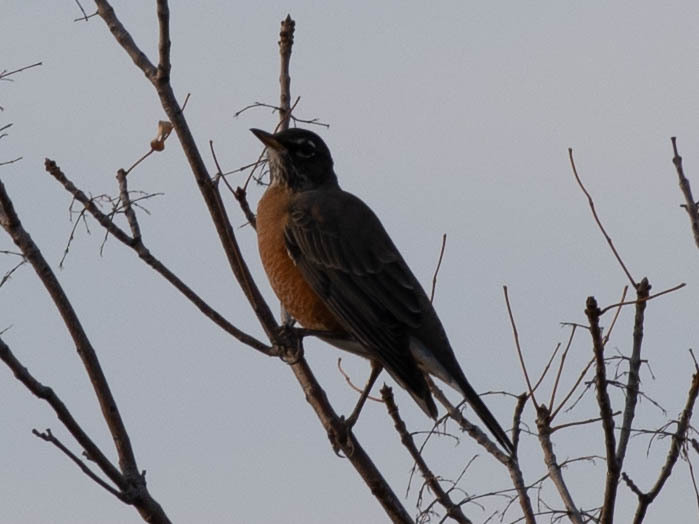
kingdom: Animalia
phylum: Chordata
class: Aves
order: Passeriformes
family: Turdidae
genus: Turdus
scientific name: Turdus migratorius
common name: American robin
